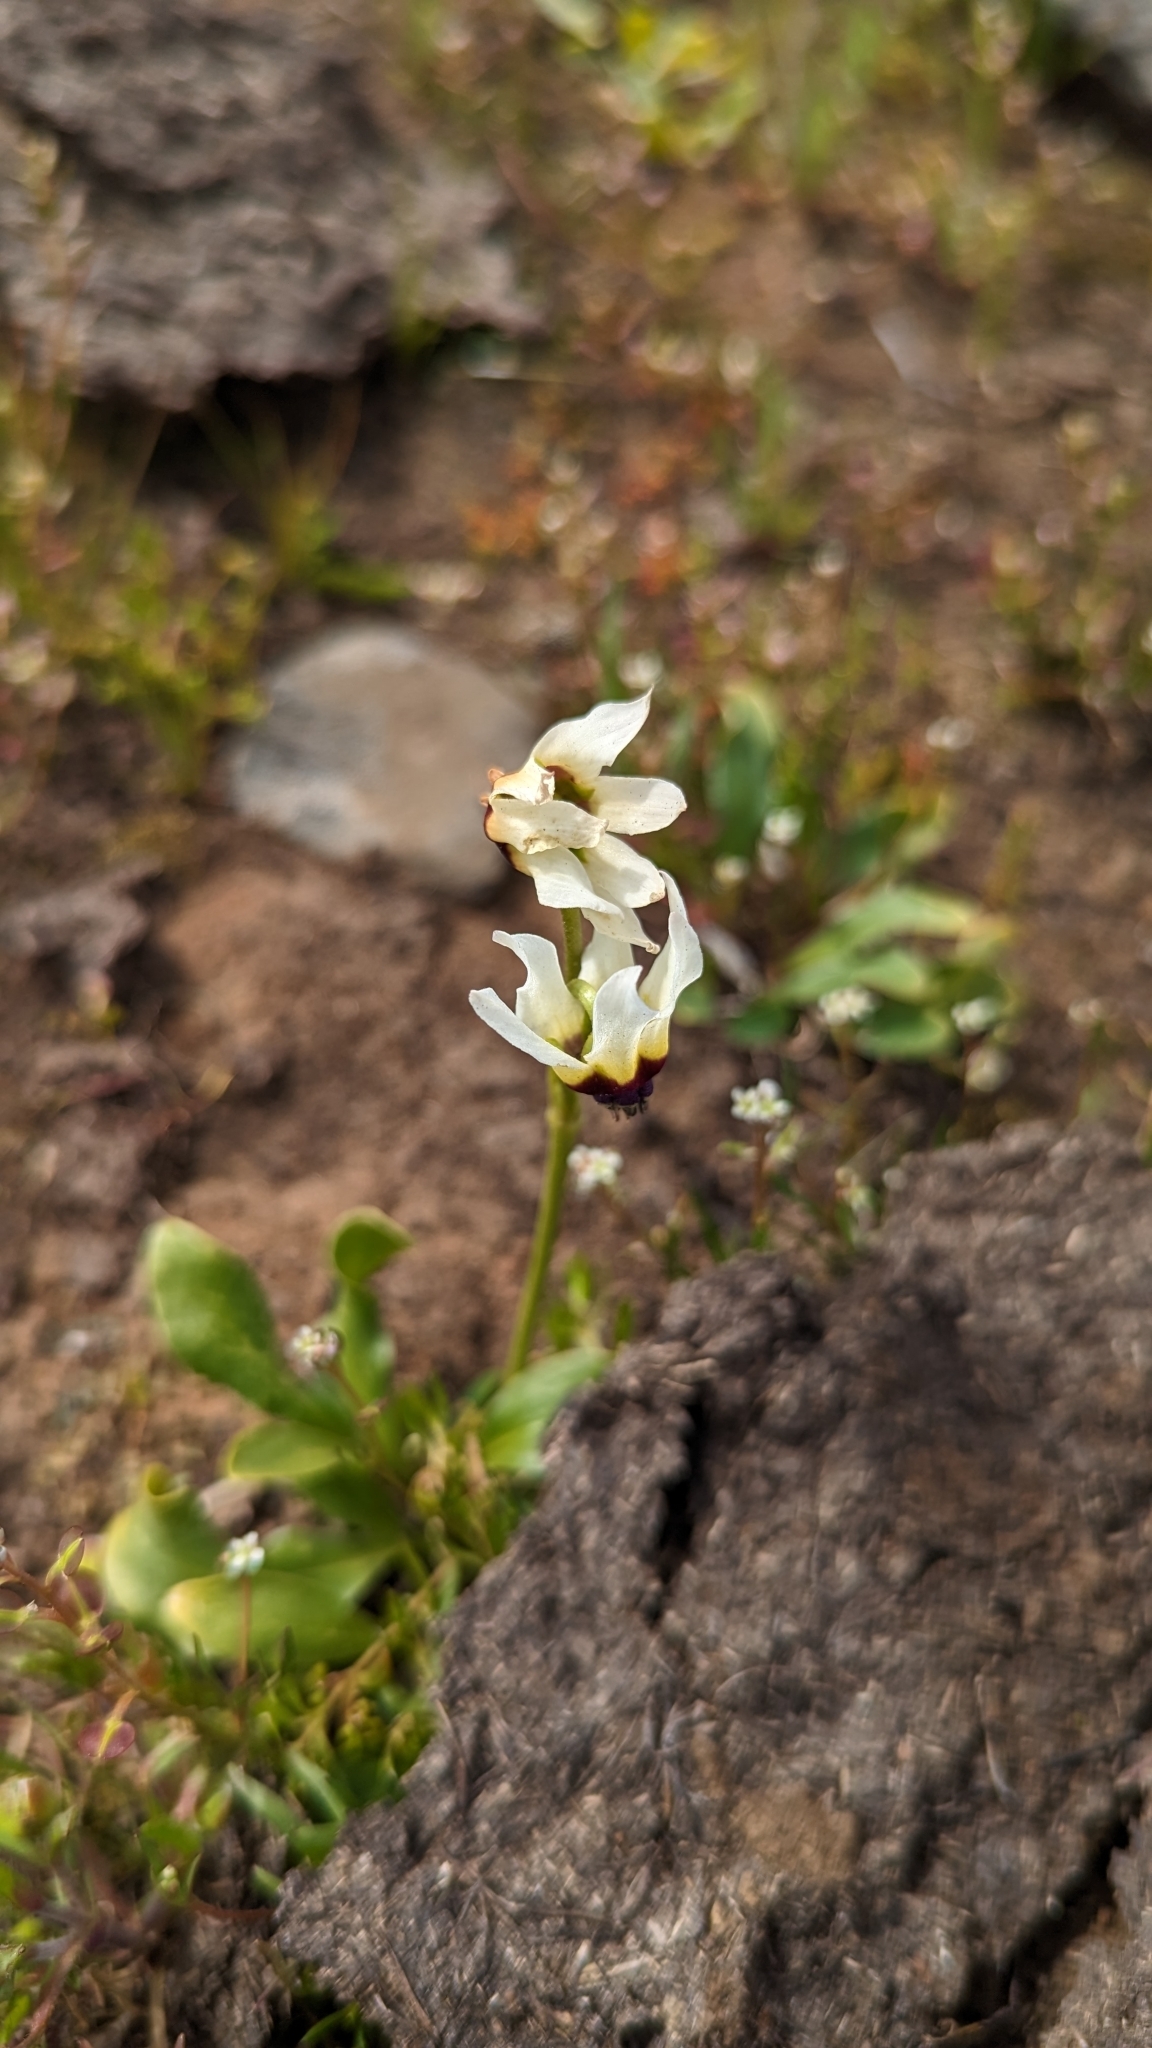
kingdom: Plantae
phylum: Tracheophyta
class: Magnoliopsida
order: Ericales
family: Primulaceae
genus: Dodecatheon
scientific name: Dodecatheon clevelandii
